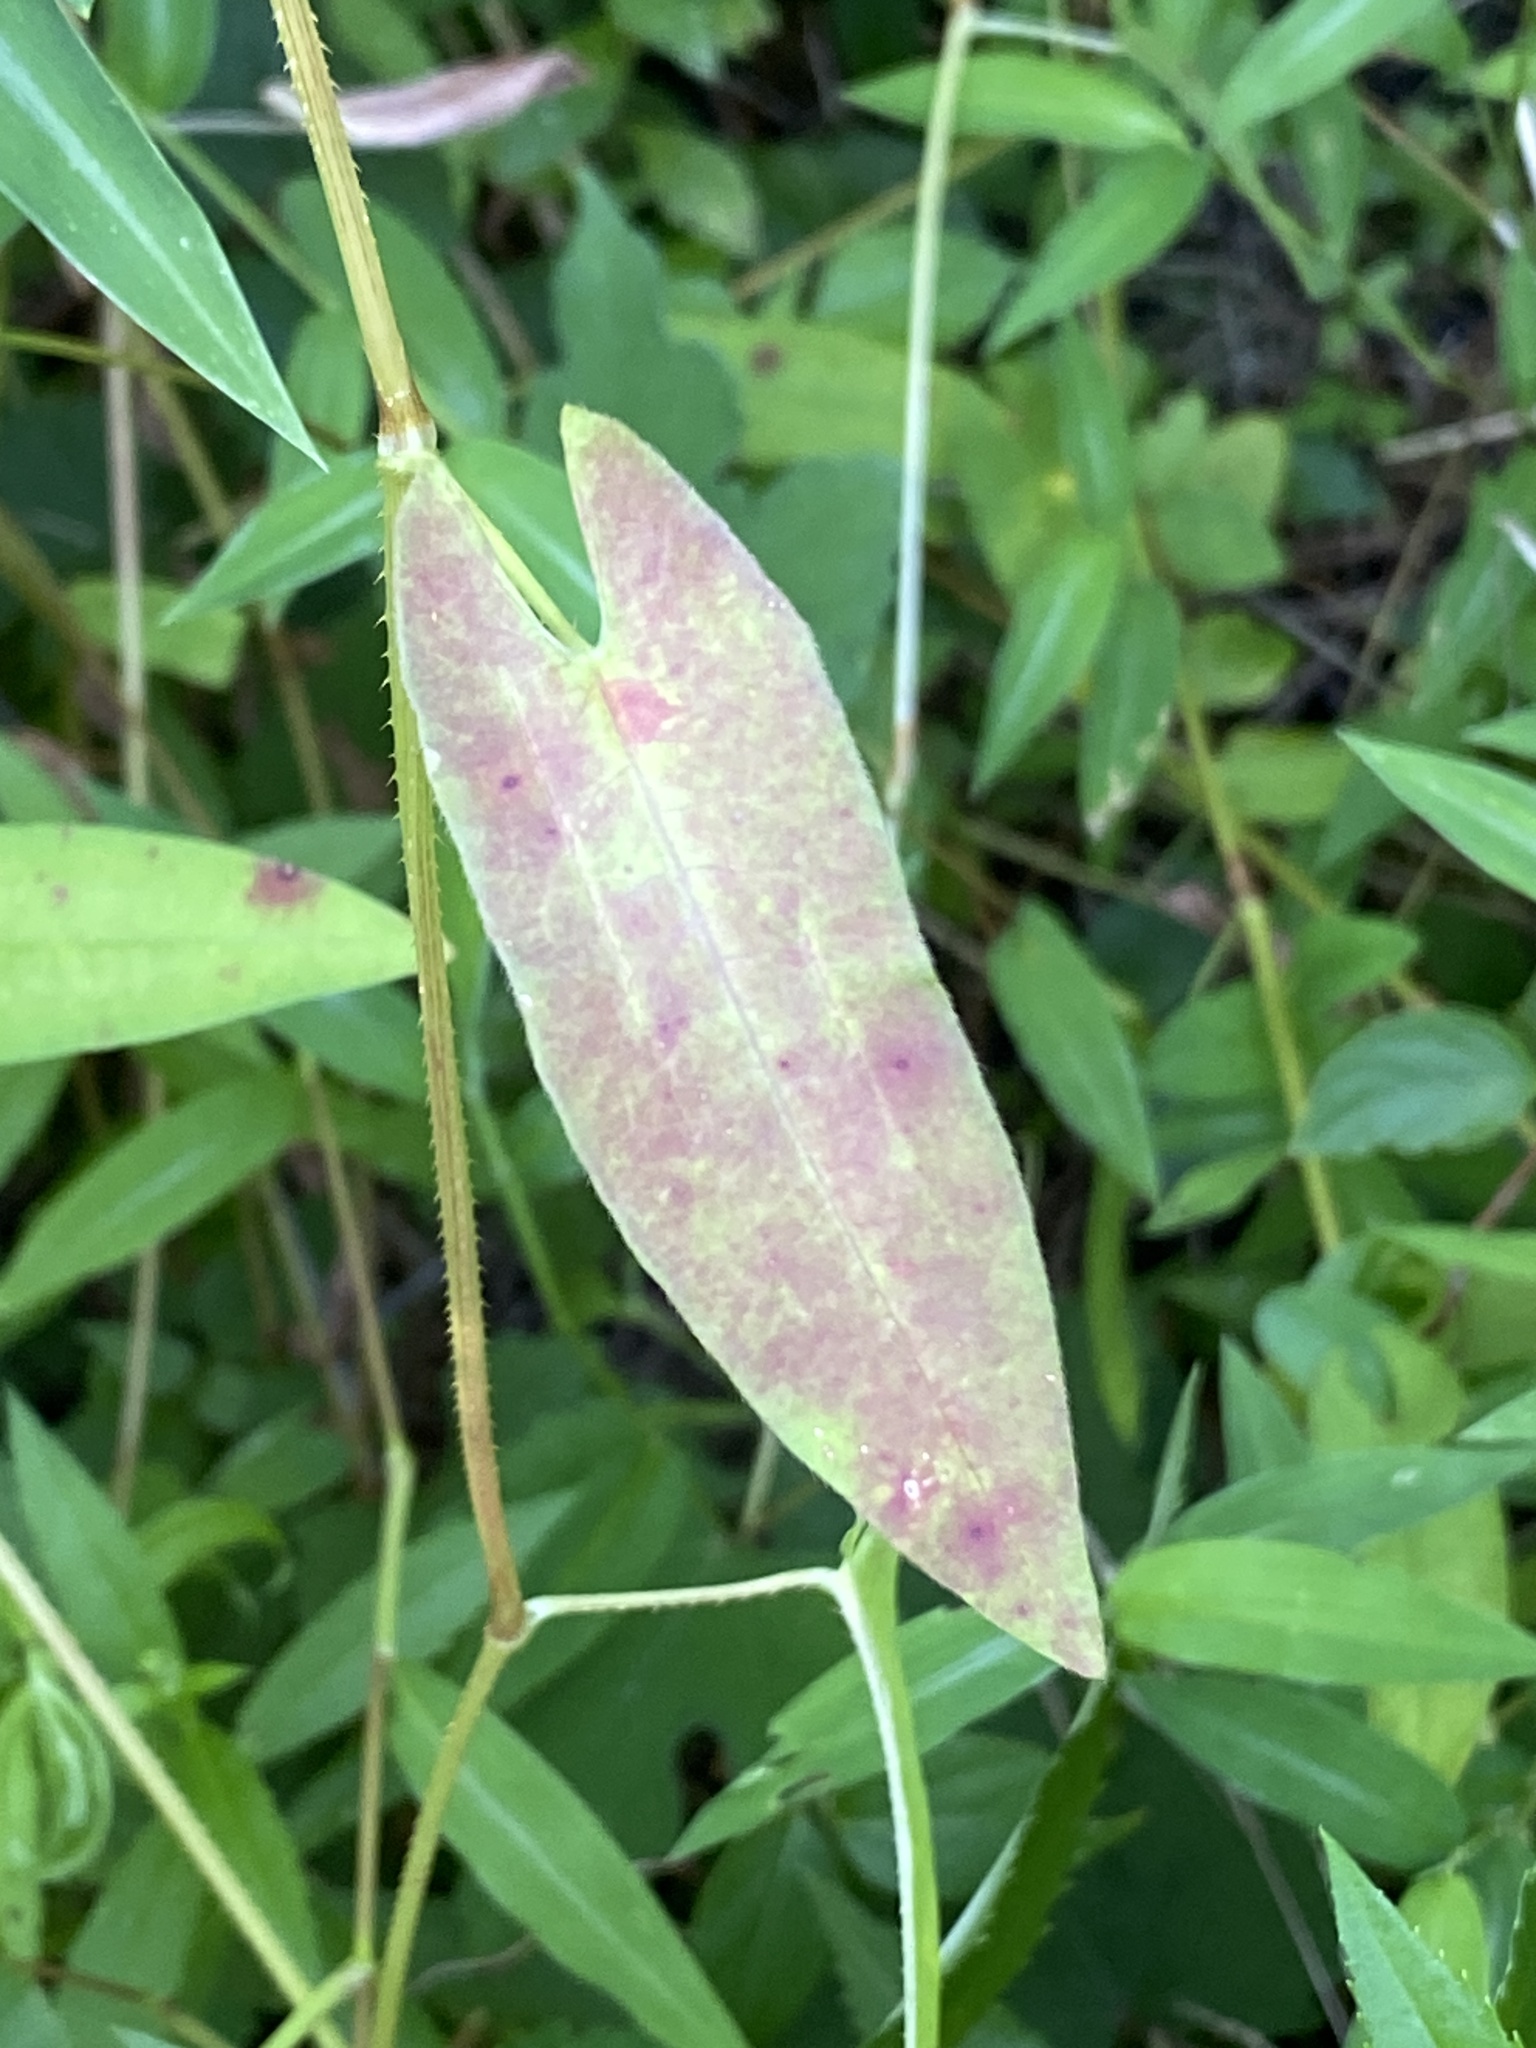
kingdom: Plantae
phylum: Tracheophyta
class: Magnoliopsida
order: Caryophyllales
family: Polygonaceae
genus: Persicaria
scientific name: Persicaria sagittata
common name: American tearthumb
